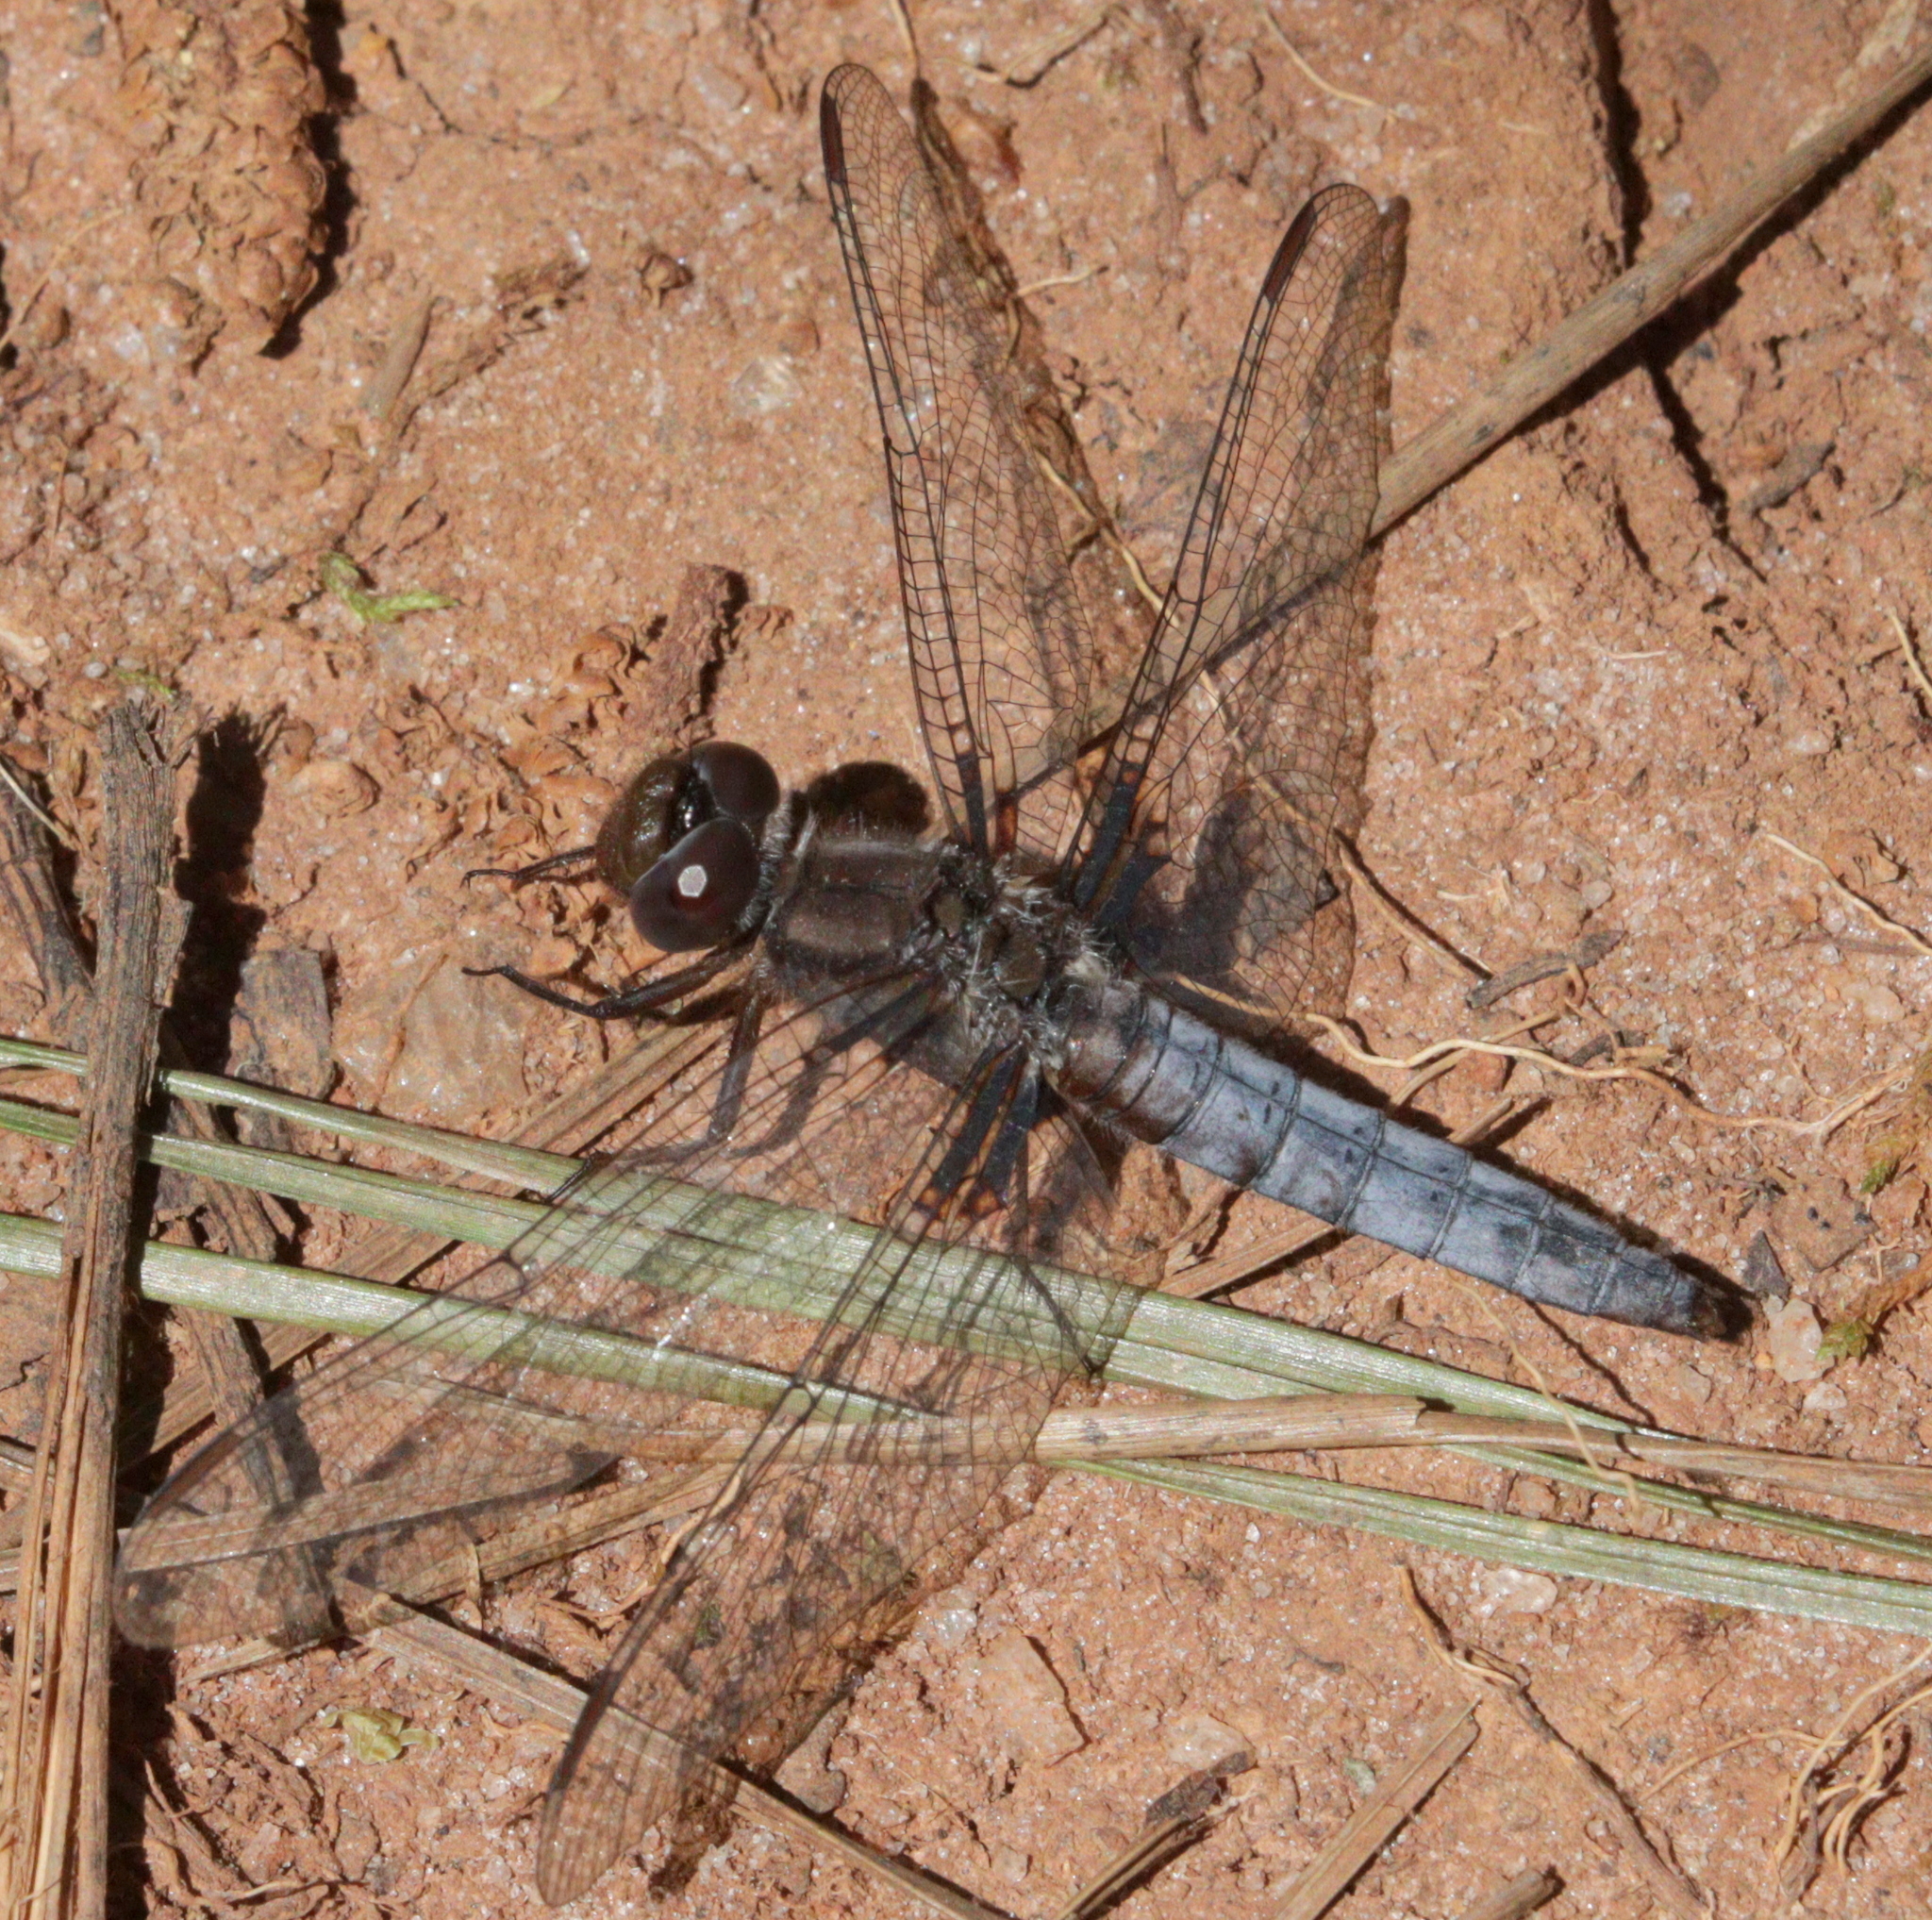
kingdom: Animalia
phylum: Arthropoda
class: Insecta
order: Odonata
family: Libellulidae
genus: Ladona
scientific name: Ladona deplanata
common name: Blue corporal
